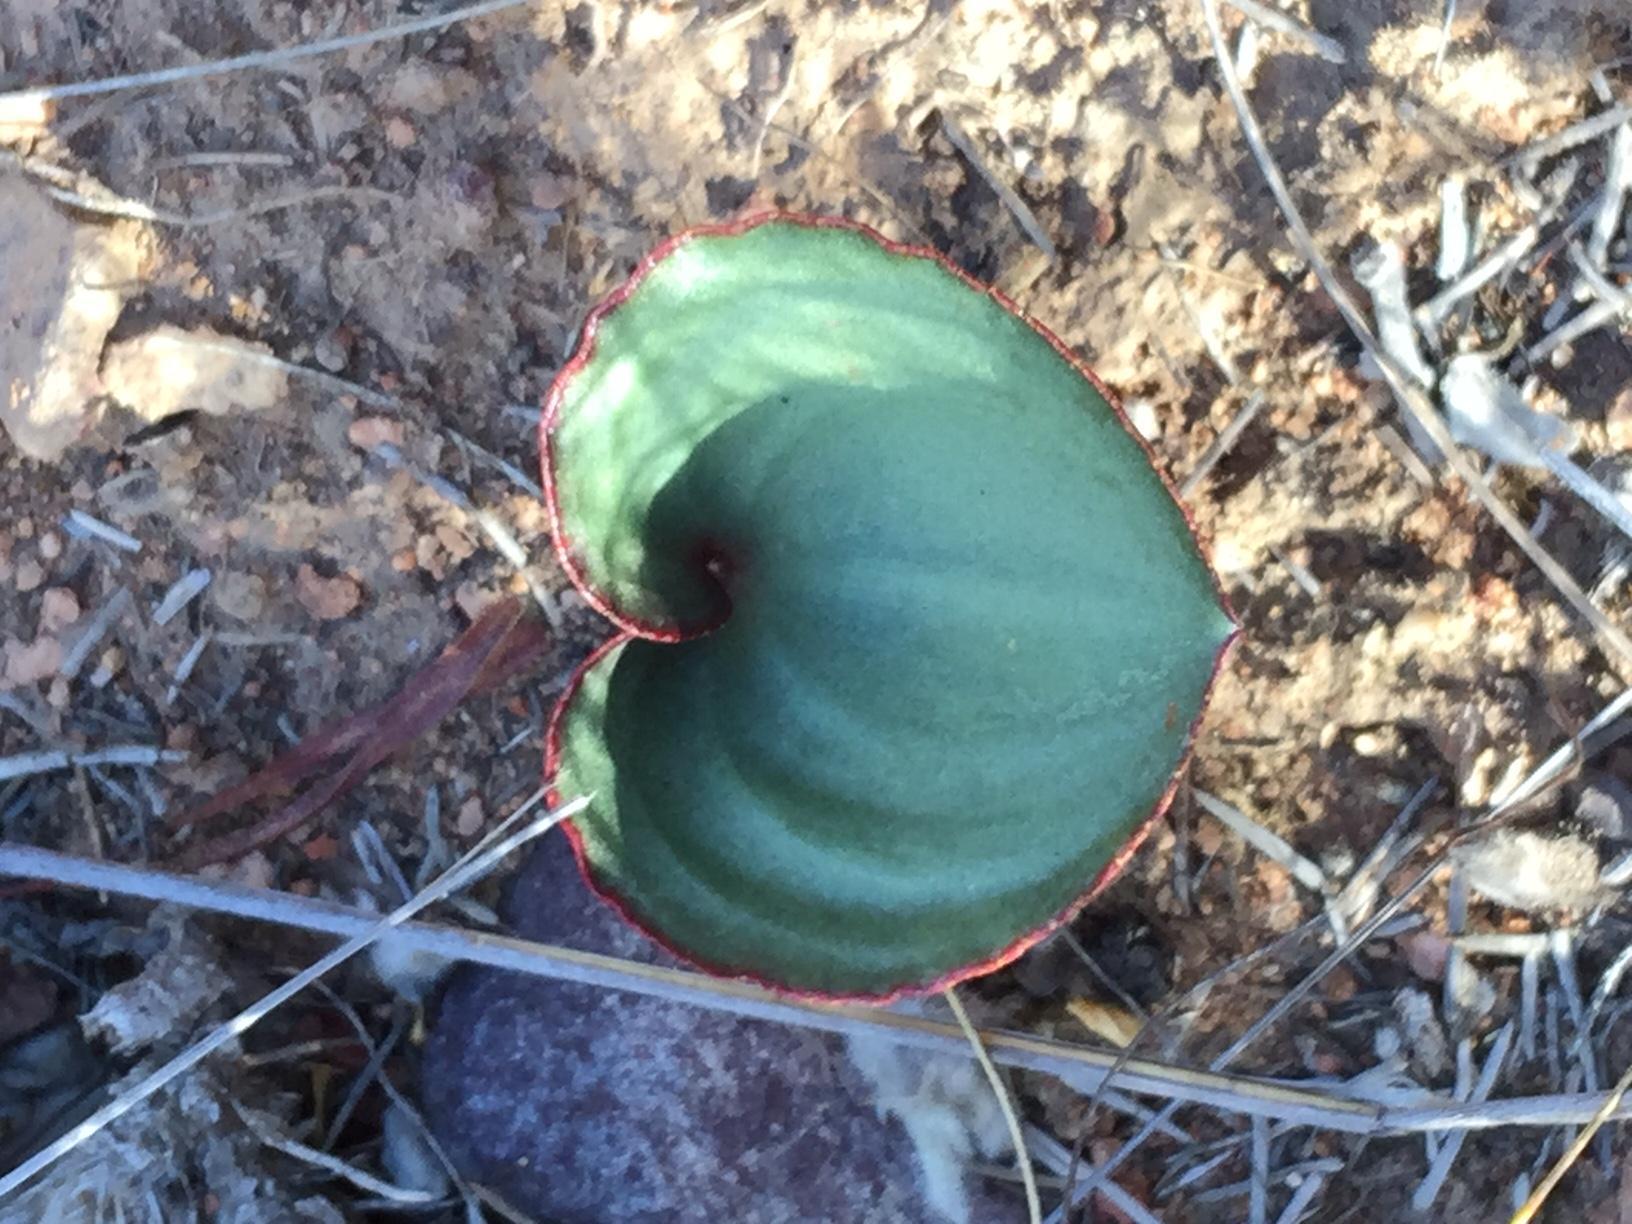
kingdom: Plantae
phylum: Tracheophyta
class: Liliopsida
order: Asparagales
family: Asparagaceae
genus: Eriospermum
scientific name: Eriospermum cordiforme
